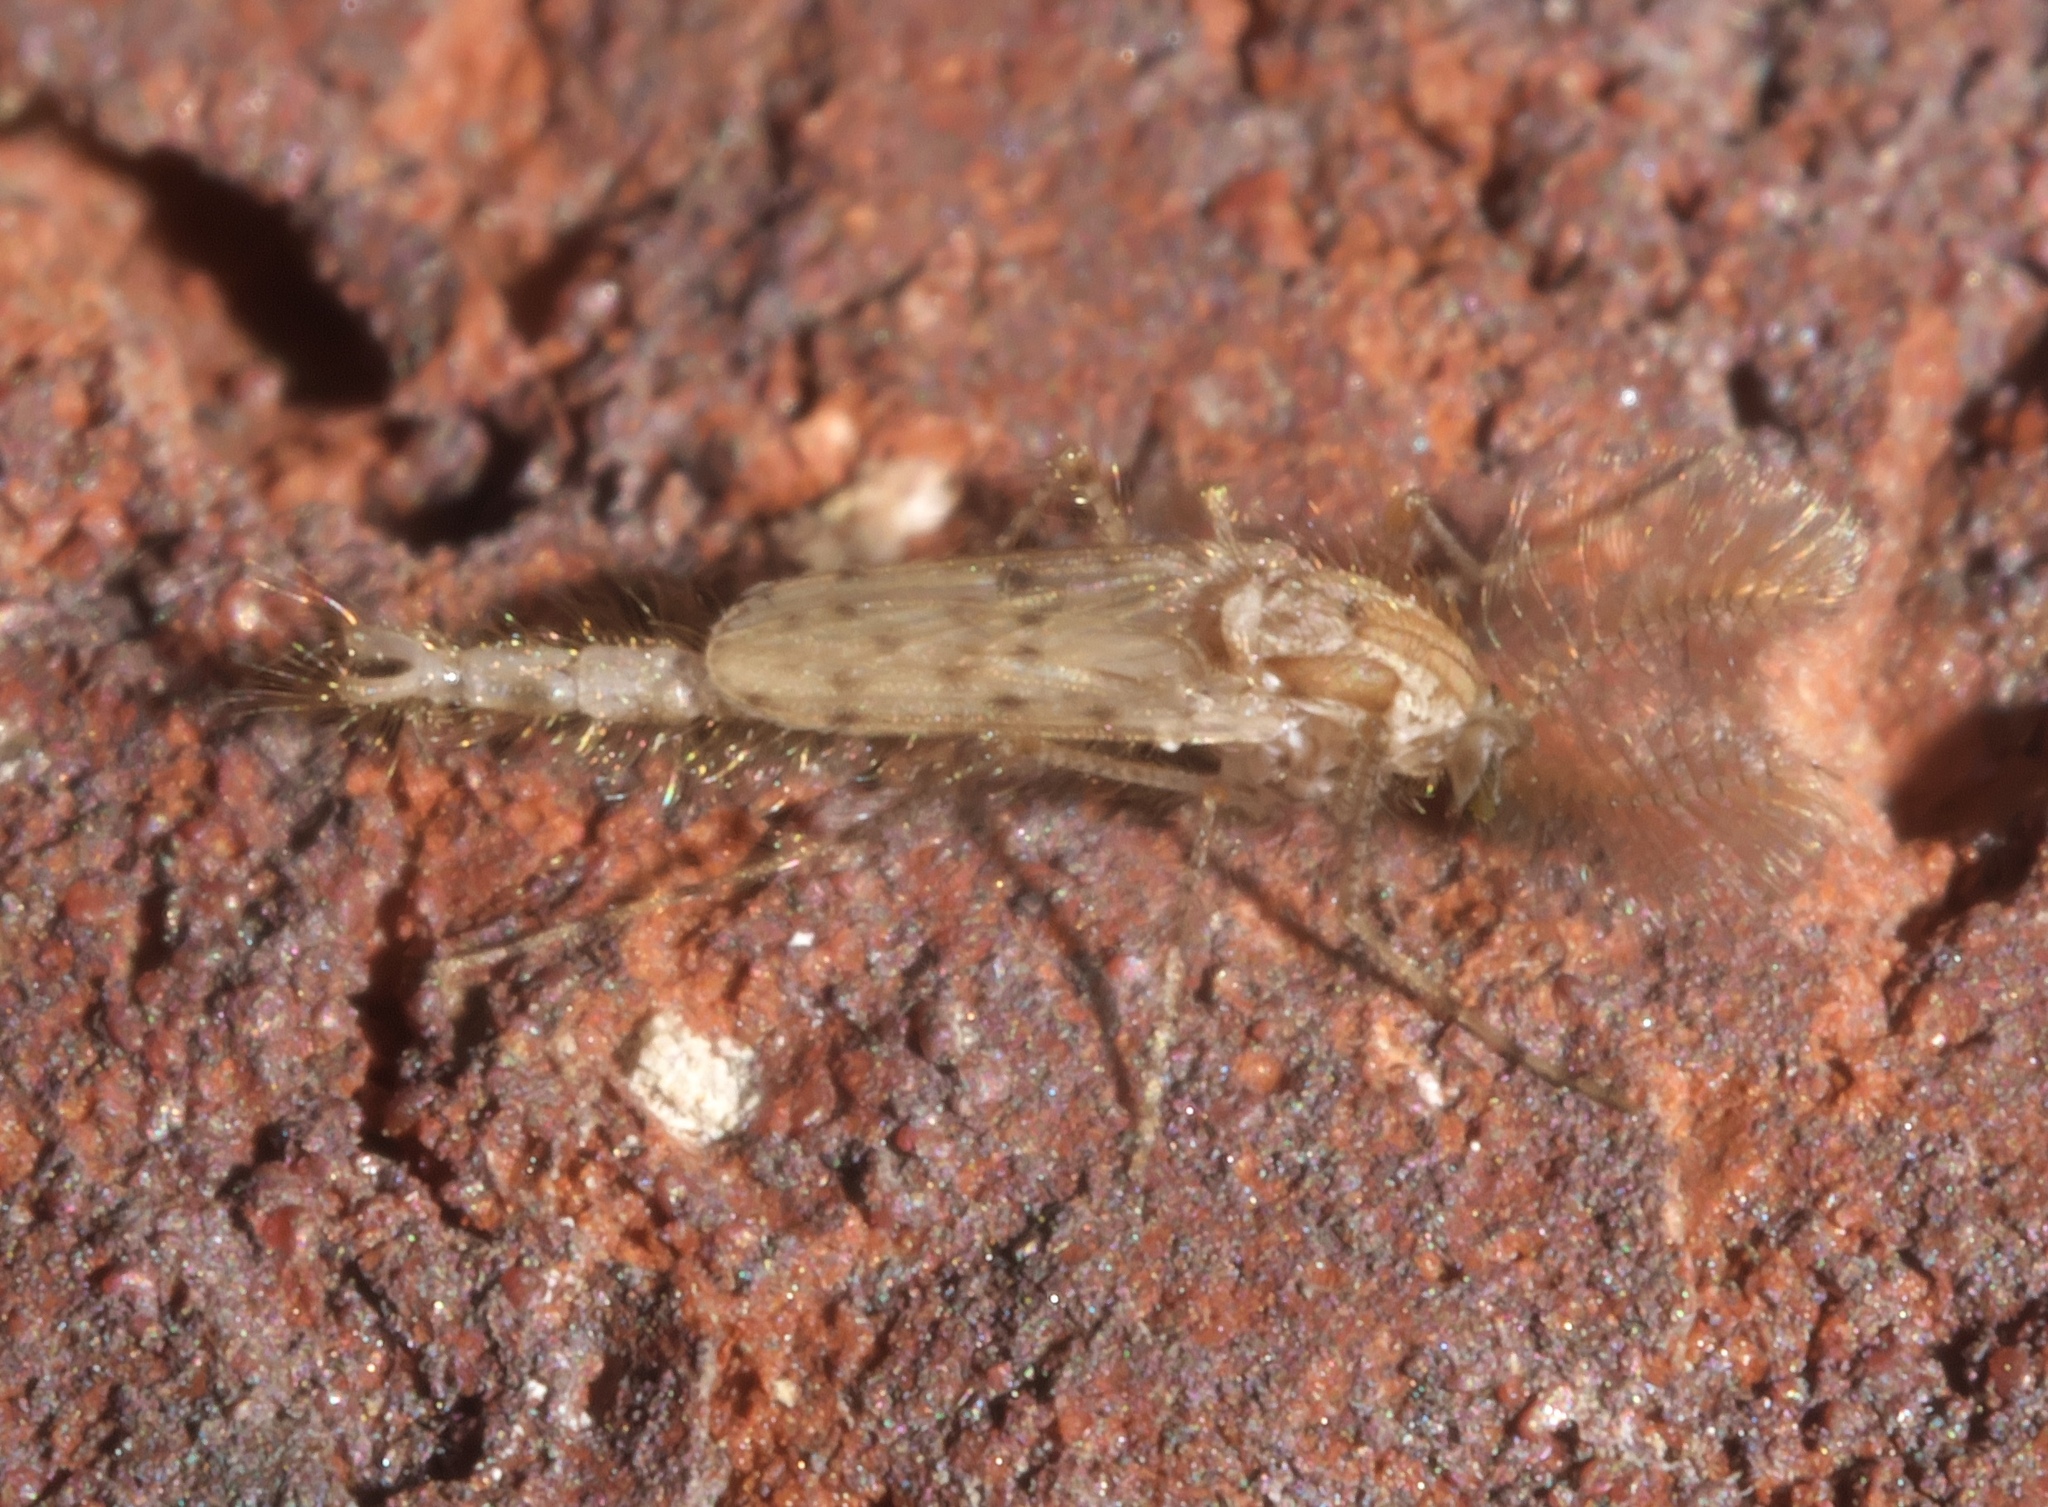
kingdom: Animalia
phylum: Arthropoda
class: Insecta
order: Diptera
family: Chaoboridae
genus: Chaoborus
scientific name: Chaoborus punctipennis
